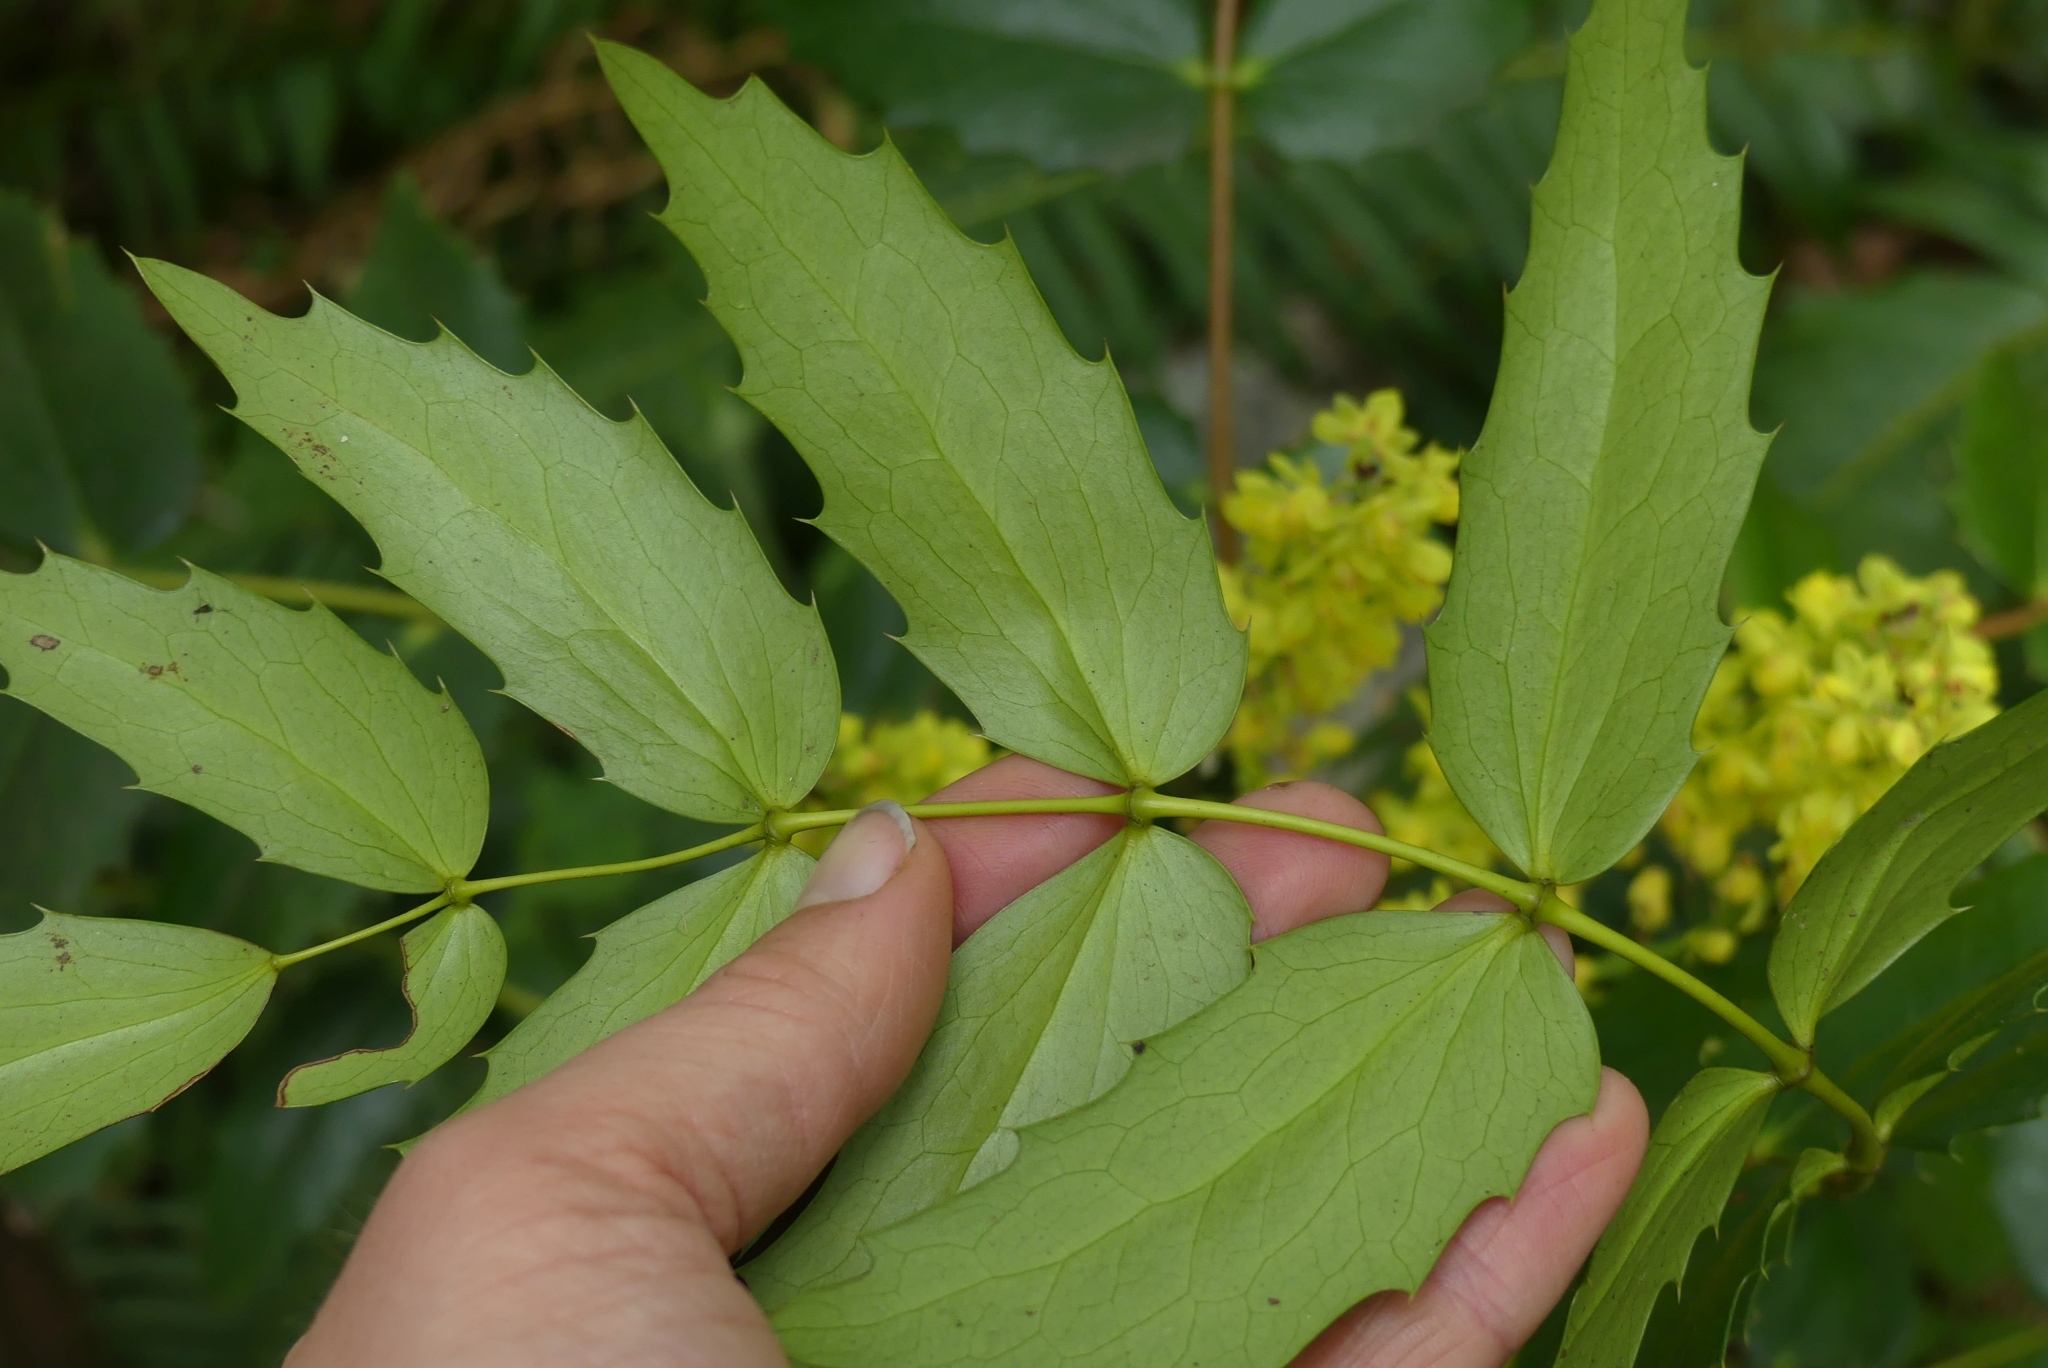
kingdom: Plantae
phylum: Tracheophyta
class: Magnoliopsida
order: Ranunculales
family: Berberidaceae
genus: Mahonia
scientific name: Mahonia nervosa
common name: Cascade oregon-grape
